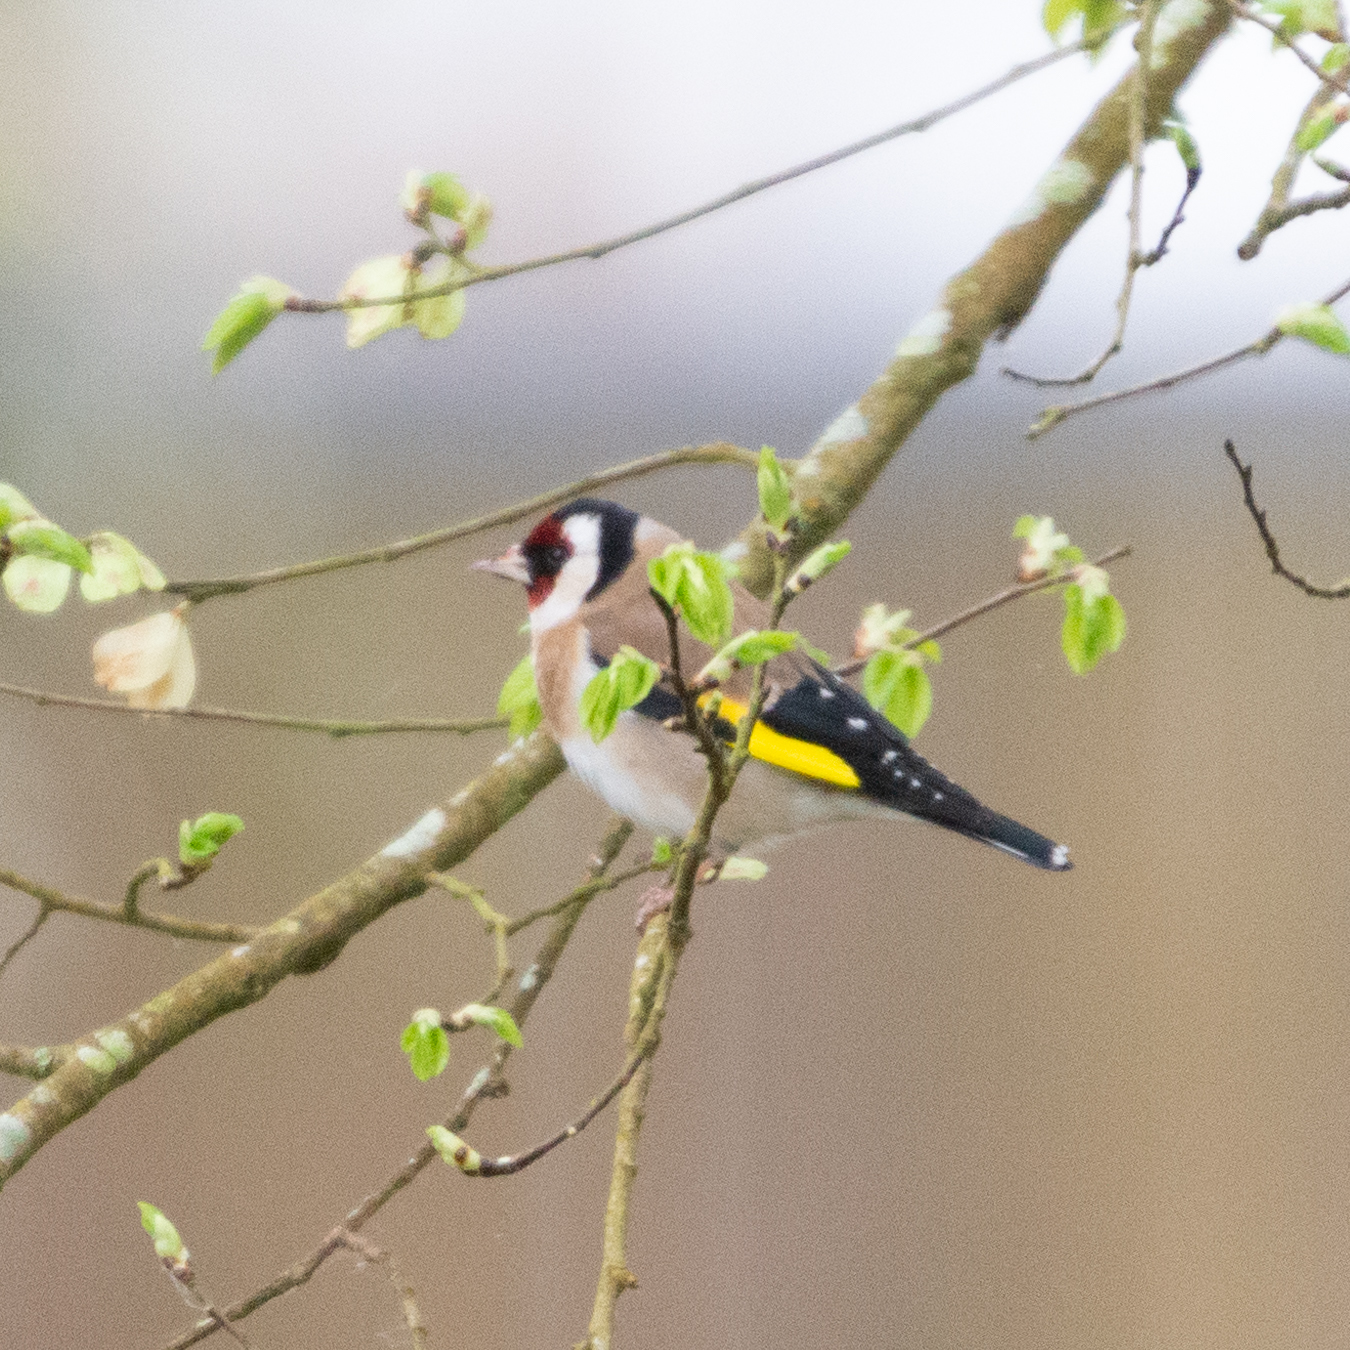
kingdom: Animalia
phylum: Chordata
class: Aves
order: Passeriformes
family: Fringillidae
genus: Carduelis
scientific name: Carduelis carduelis
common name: European goldfinch
